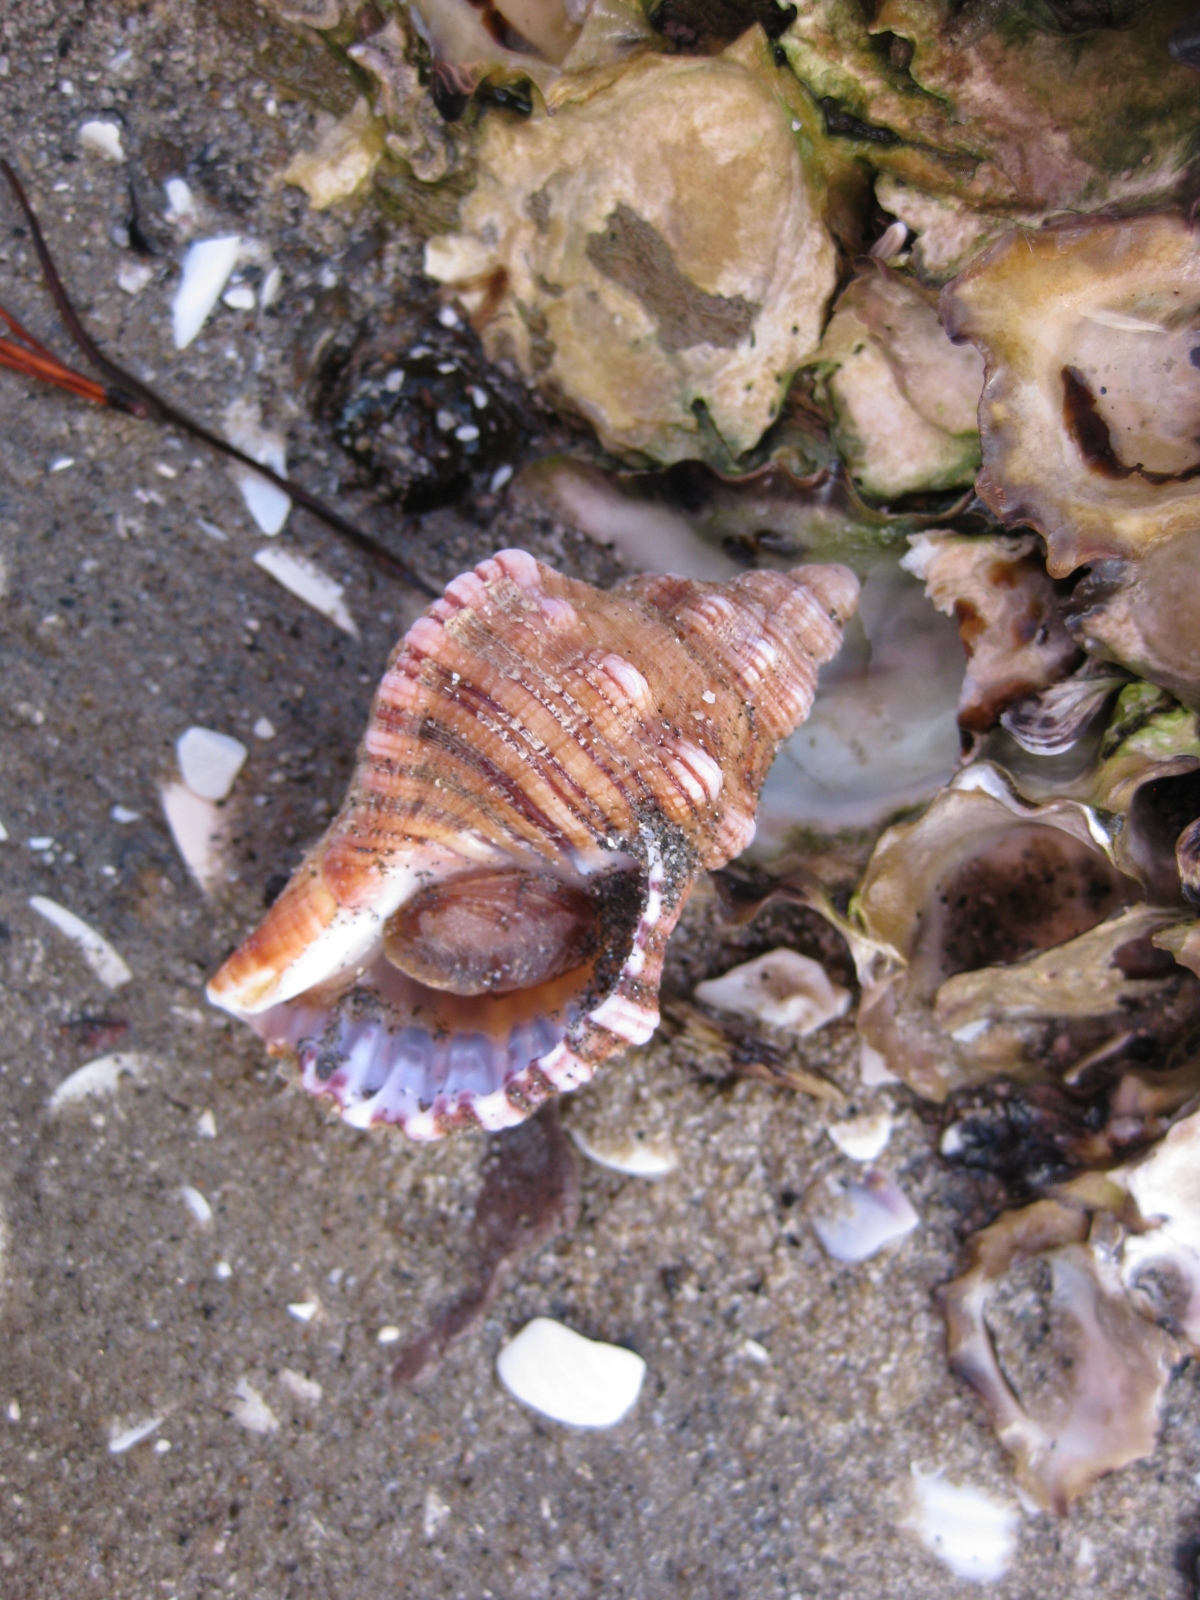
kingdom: Animalia
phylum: Mollusca
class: Gastropoda
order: Littorinimorpha
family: Cymatiidae
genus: Cabestana
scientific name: Cabestana spengleri
